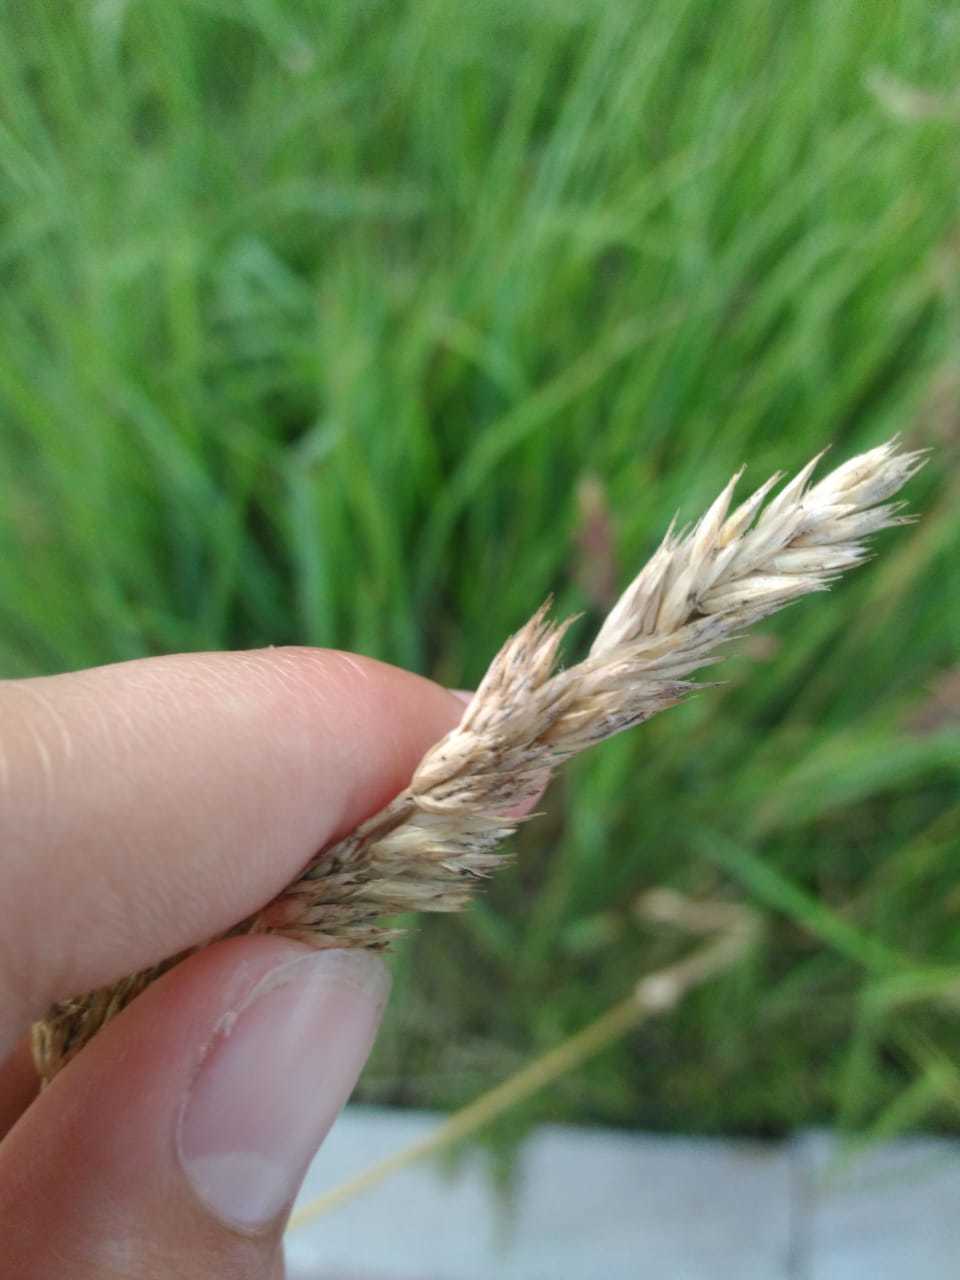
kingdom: Plantae
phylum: Tracheophyta
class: Liliopsida
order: Poales
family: Poaceae
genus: Dactylis
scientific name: Dactylis glomerata
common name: Orchardgrass
